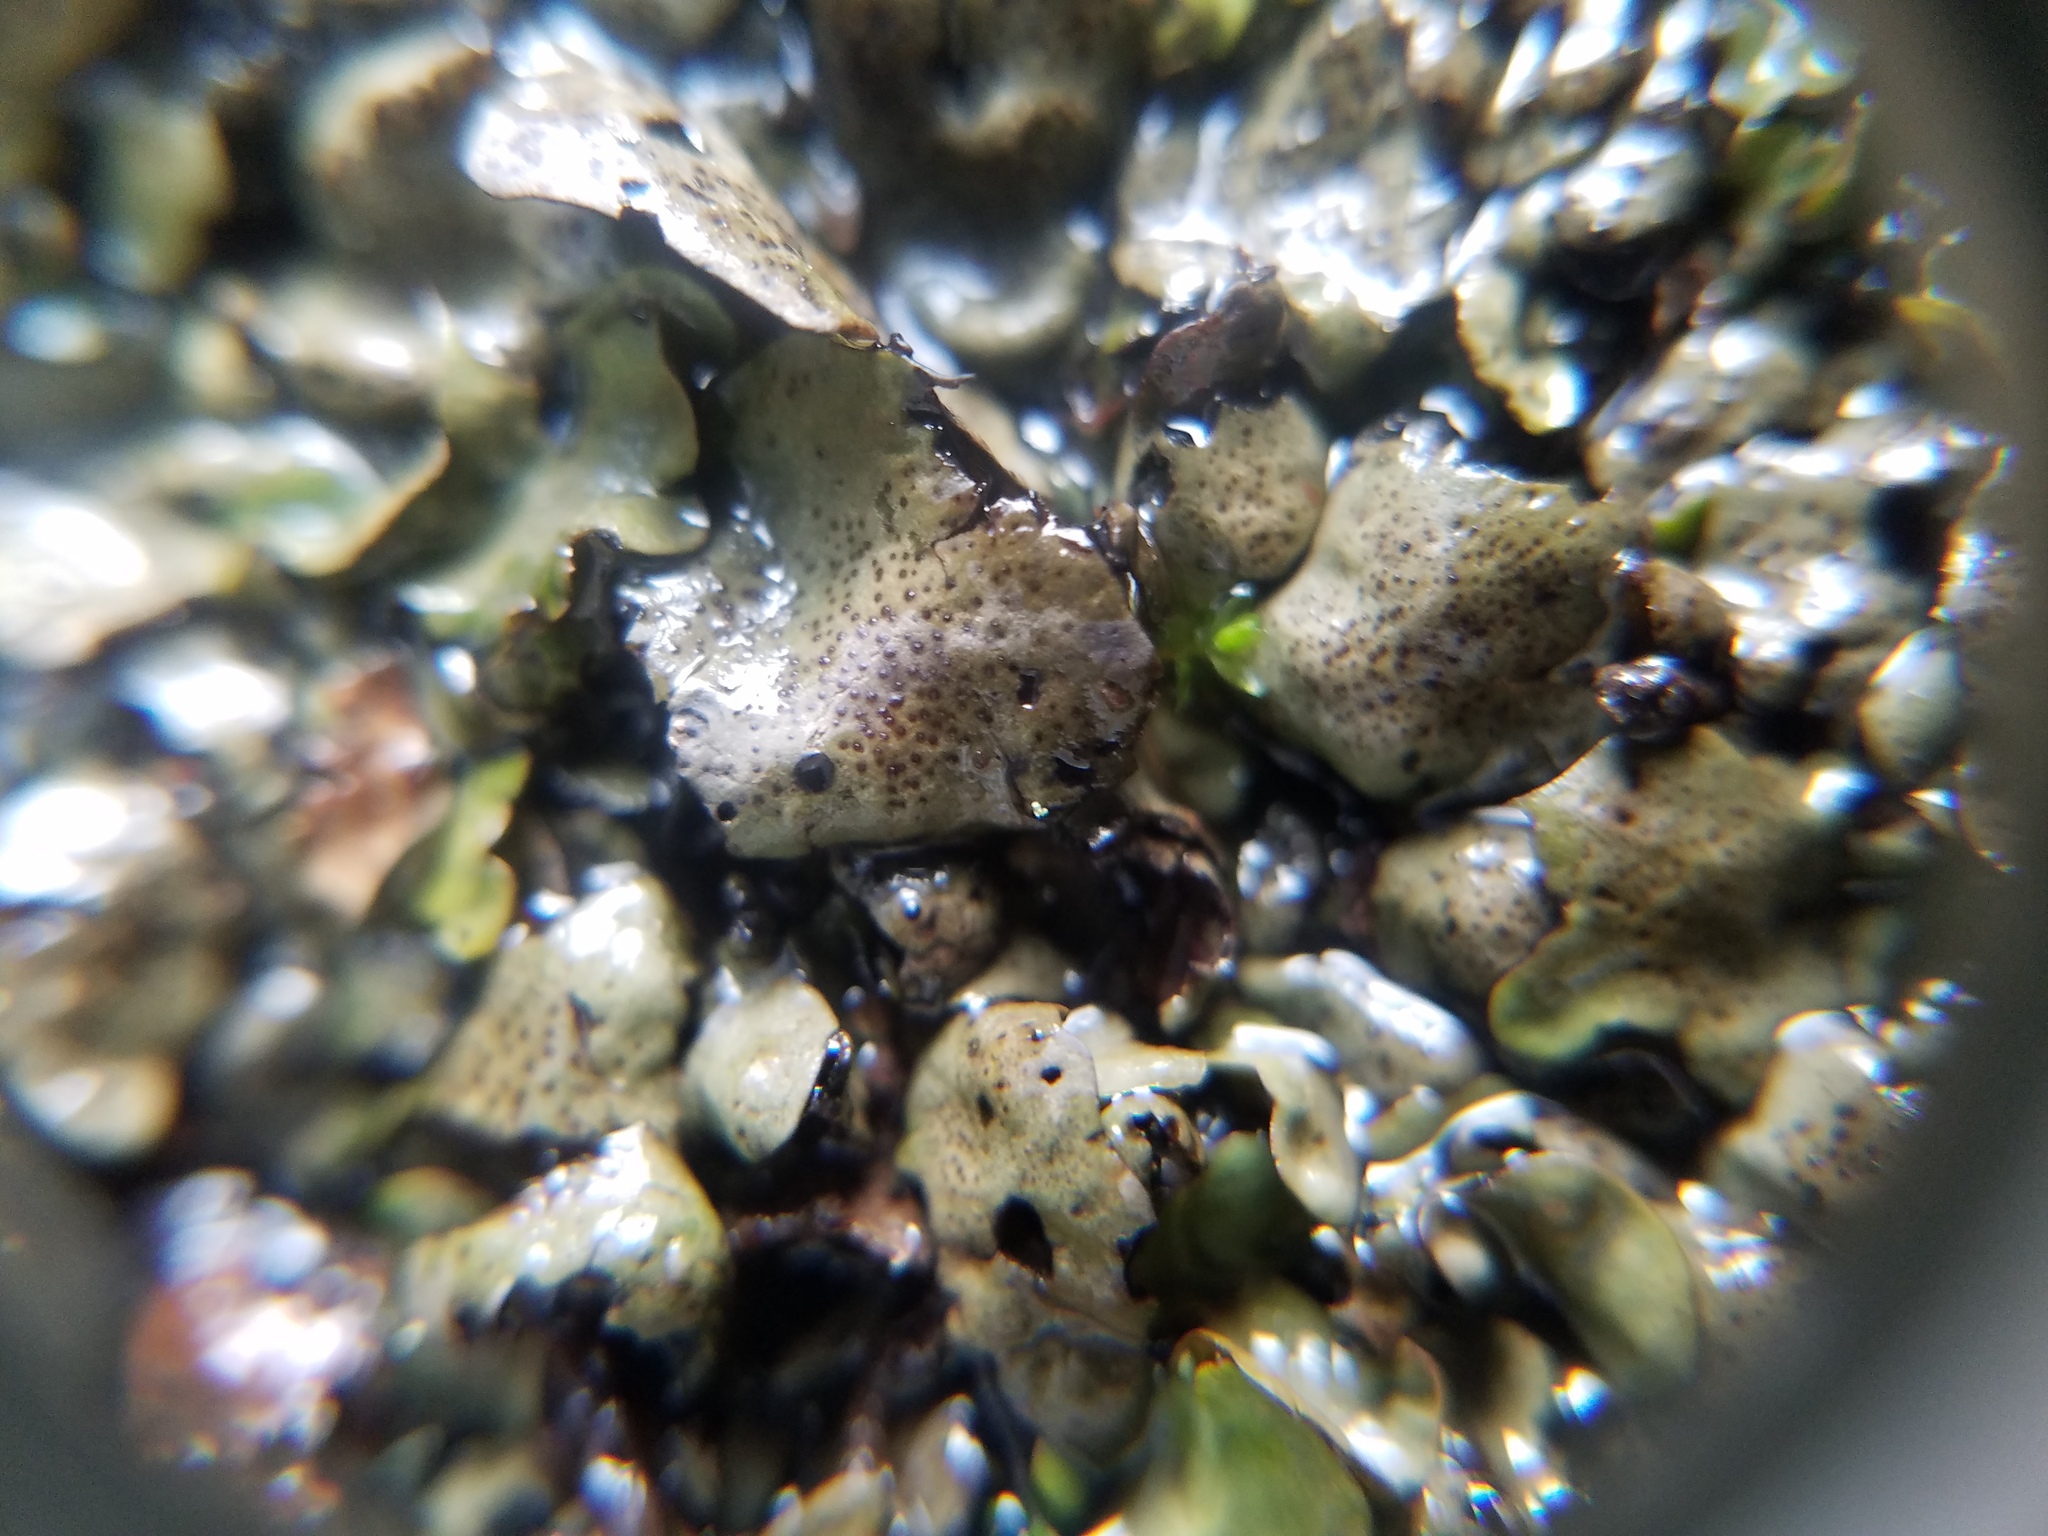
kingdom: Fungi
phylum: Ascomycota
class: Eurotiomycetes
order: Verrucariales
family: Verrucariaceae
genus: Dermatocarpon
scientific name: Dermatocarpon luridum
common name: Brook stippleback lichen
